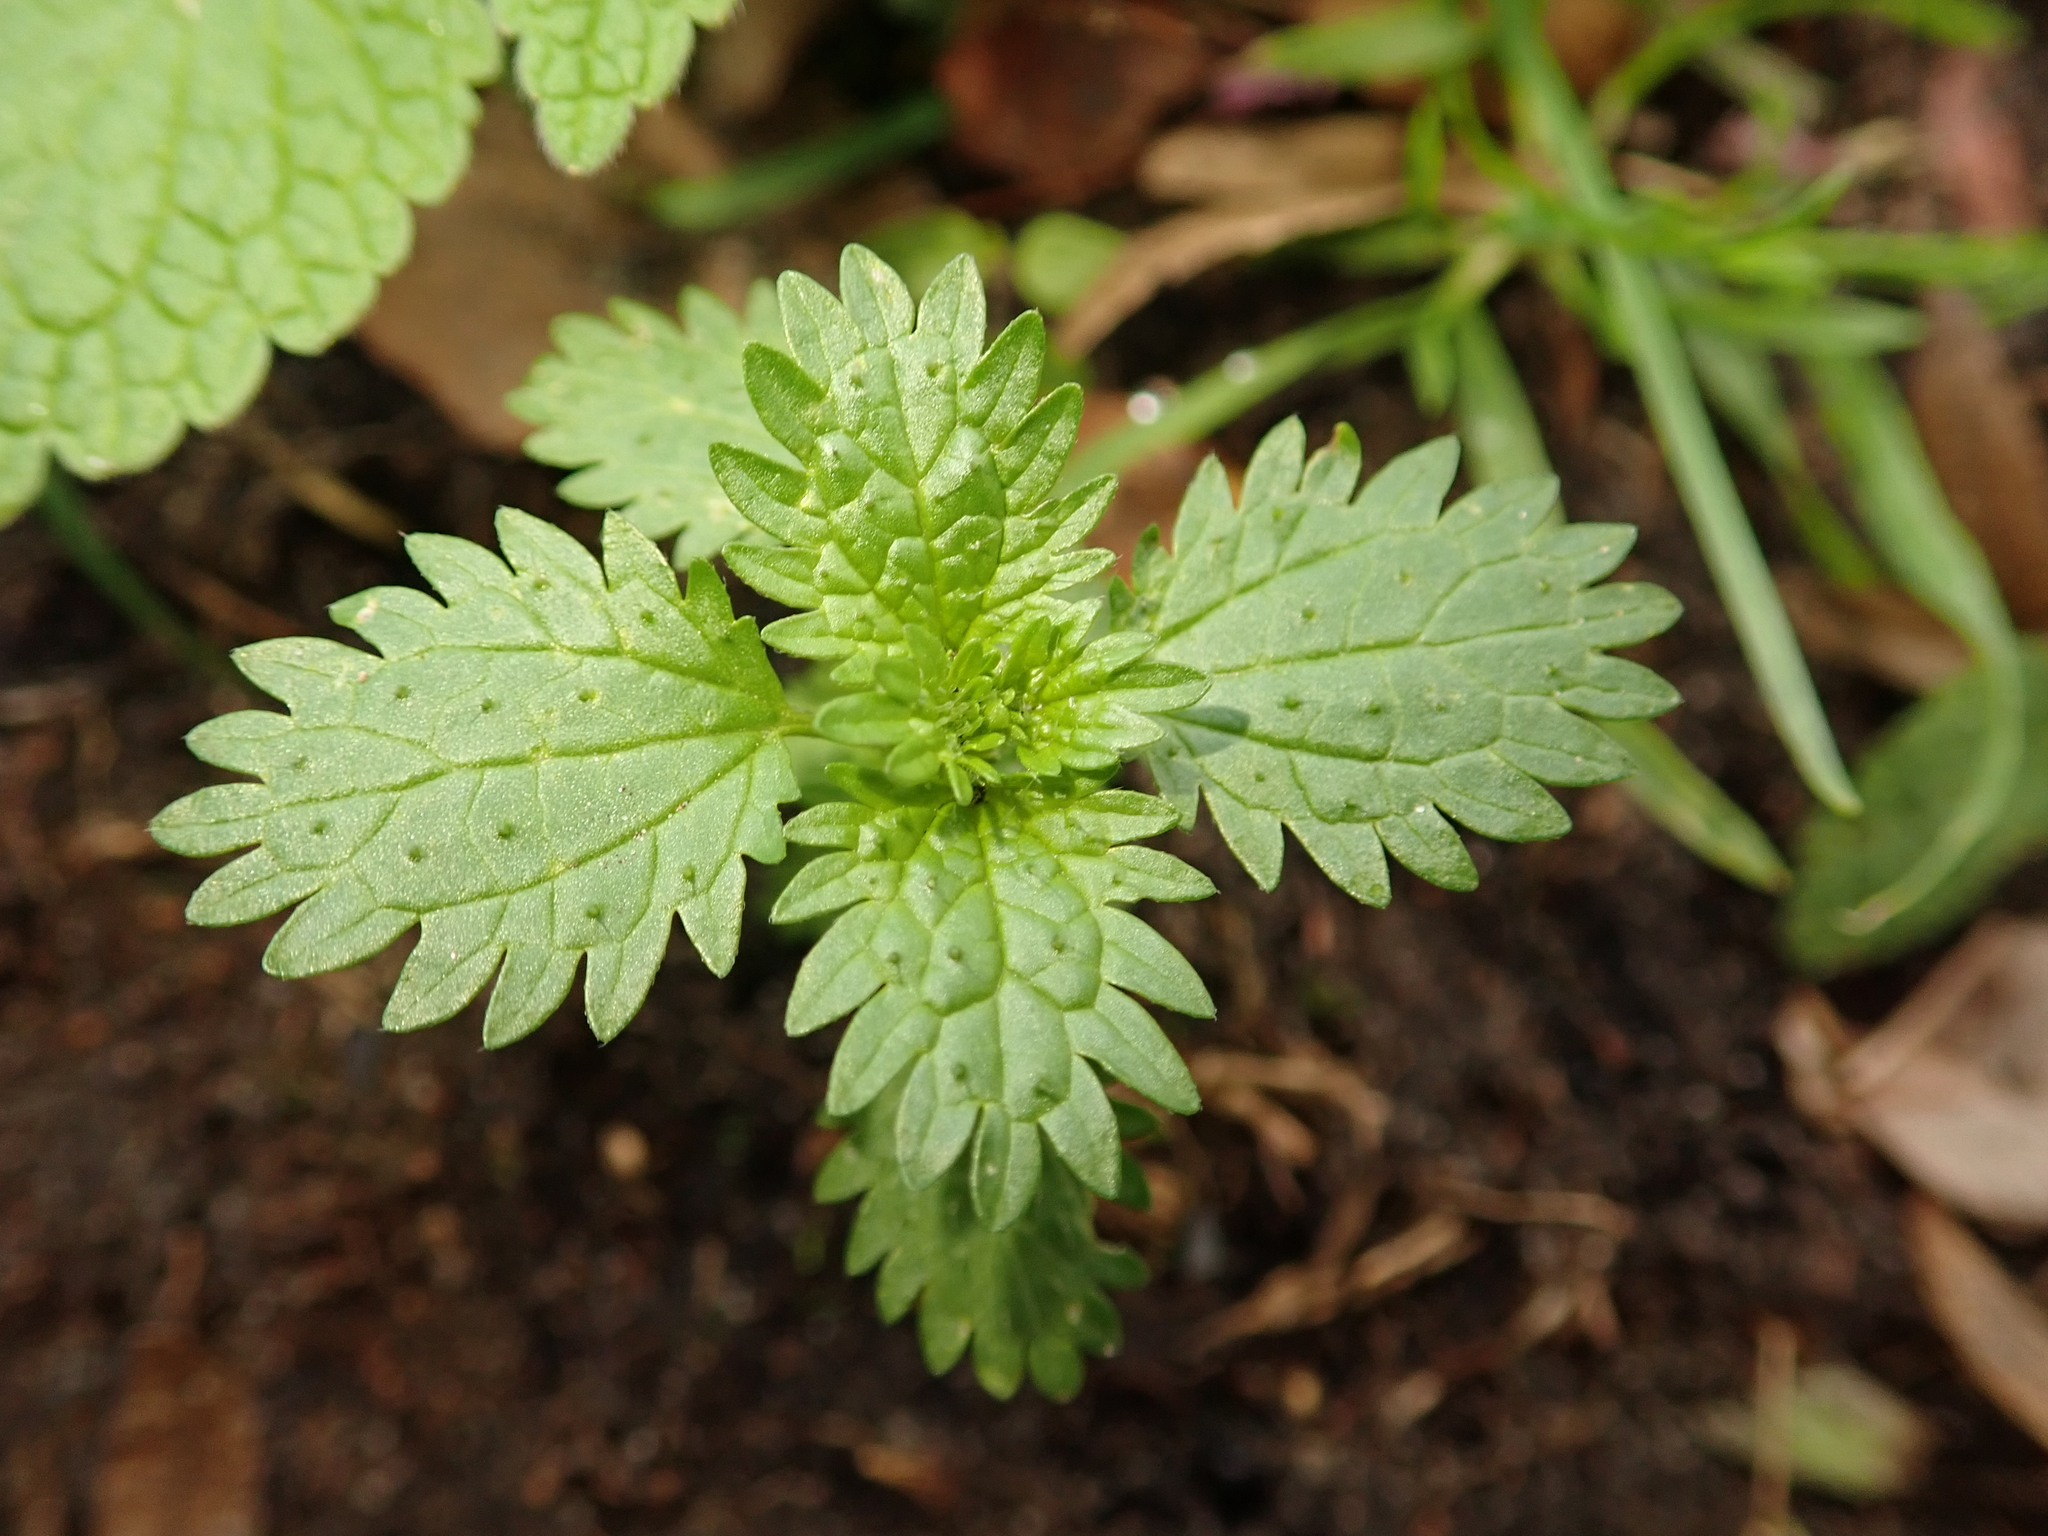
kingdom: Plantae
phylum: Tracheophyta
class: Magnoliopsida
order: Rosales
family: Urticaceae
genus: Urtica
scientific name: Urtica urens
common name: Dwarf nettle
